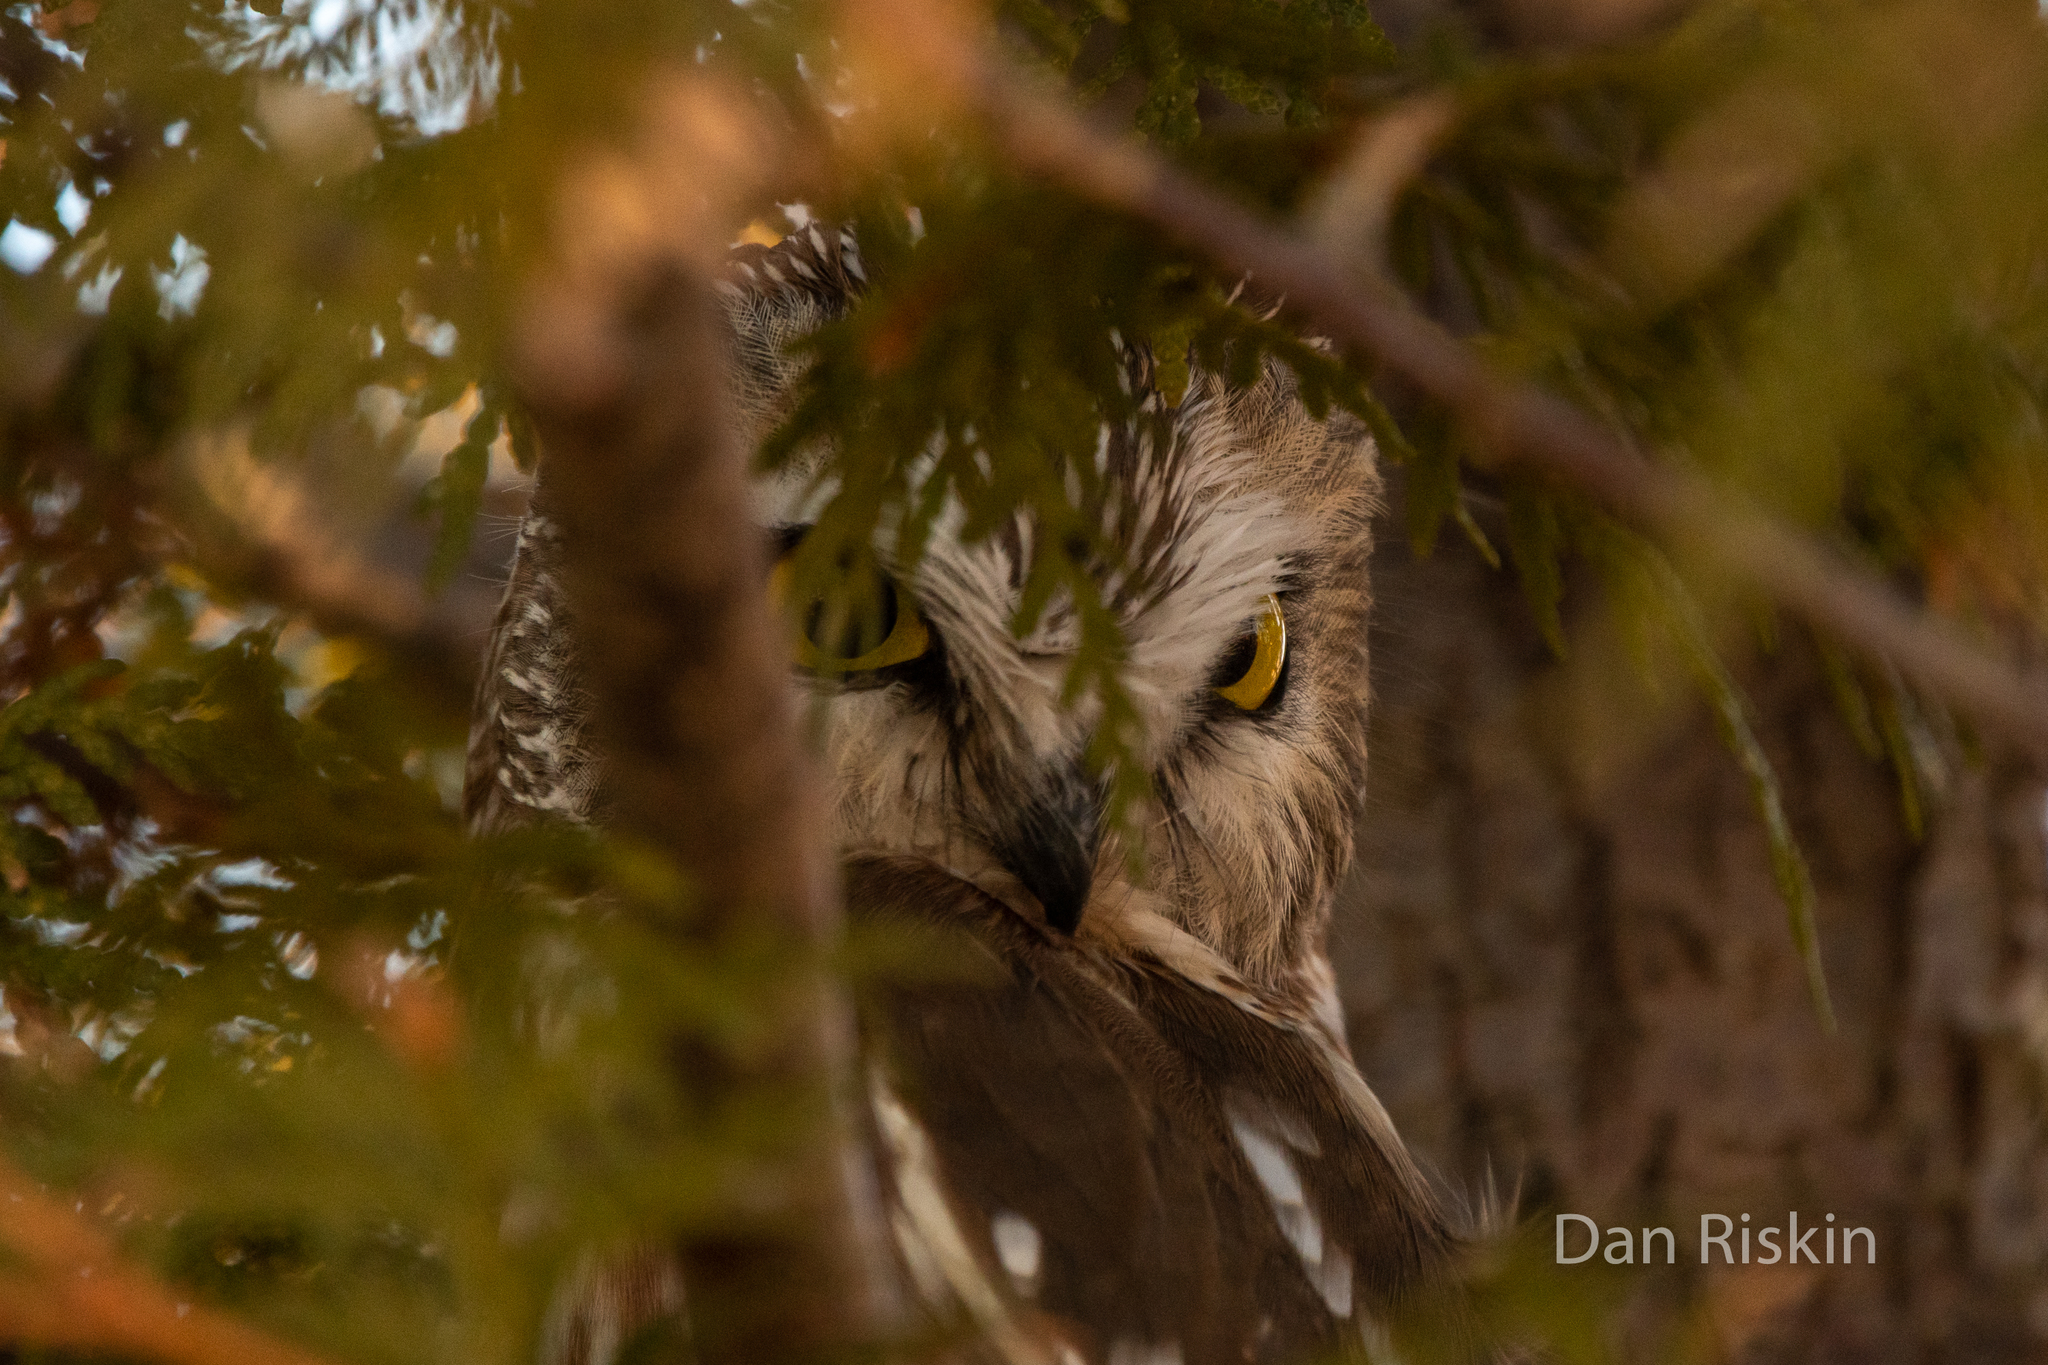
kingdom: Animalia
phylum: Chordata
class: Aves
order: Strigiformes
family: Strigidae
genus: Aegolius
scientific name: Aegolius acadicus
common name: Northern saw-whet owl
